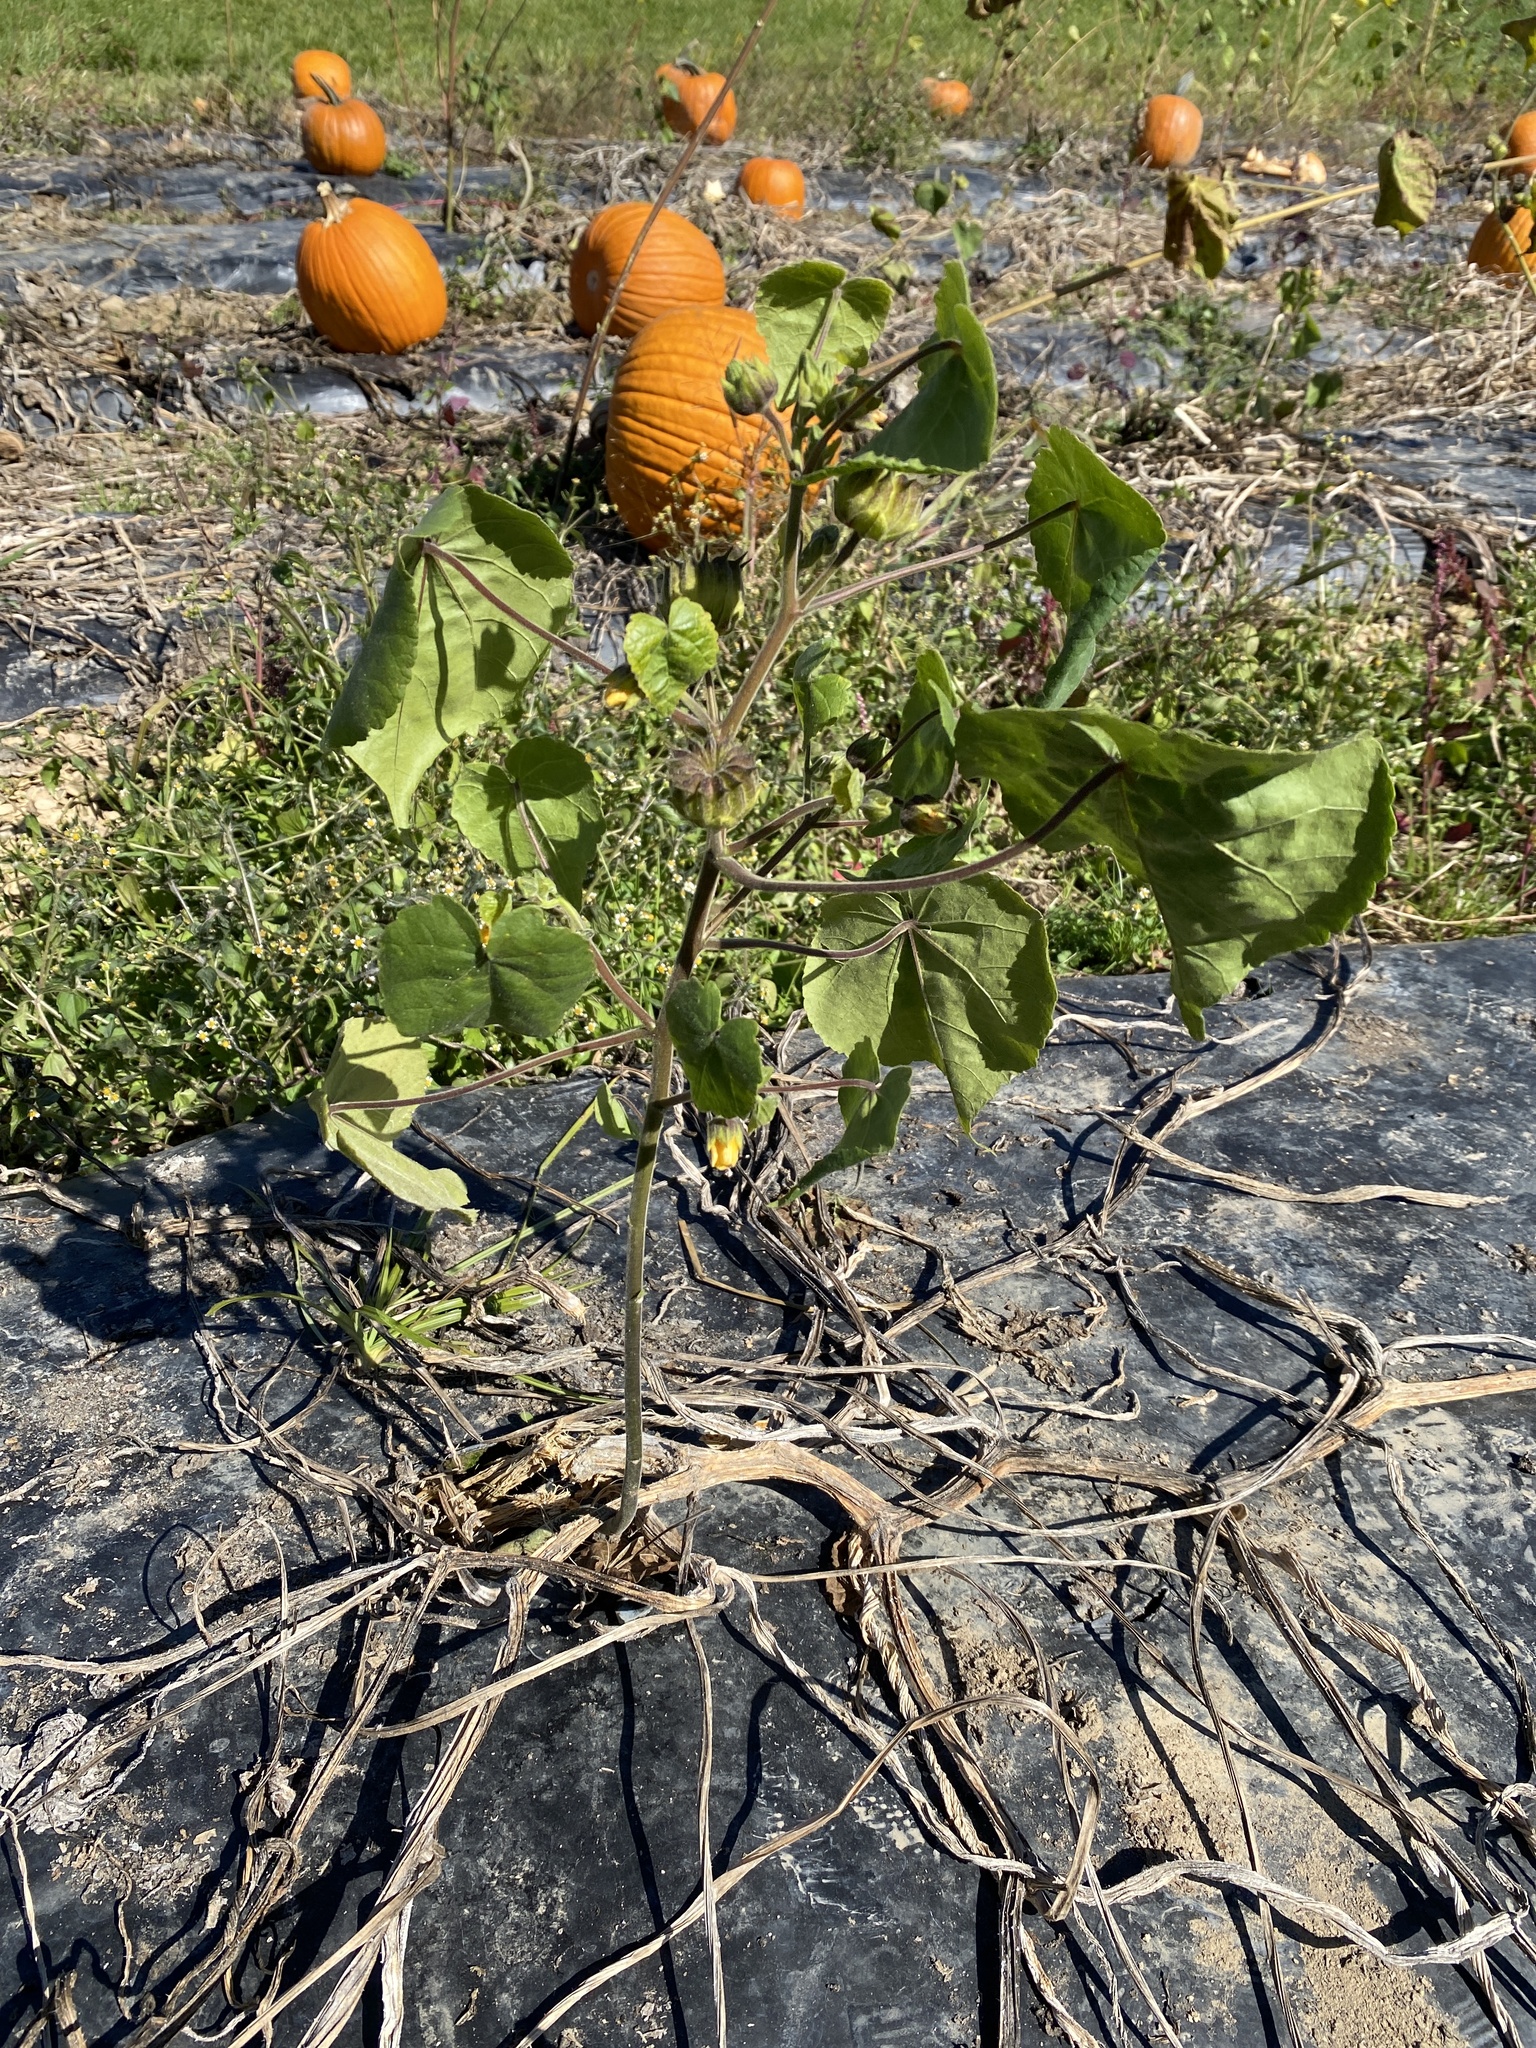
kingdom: Plantae
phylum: Tracheophyta
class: Magnoliopsida
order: Malvales
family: Malvaceae
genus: Abutilon
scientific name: Abutilon theophrasti
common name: Velvetleaf
